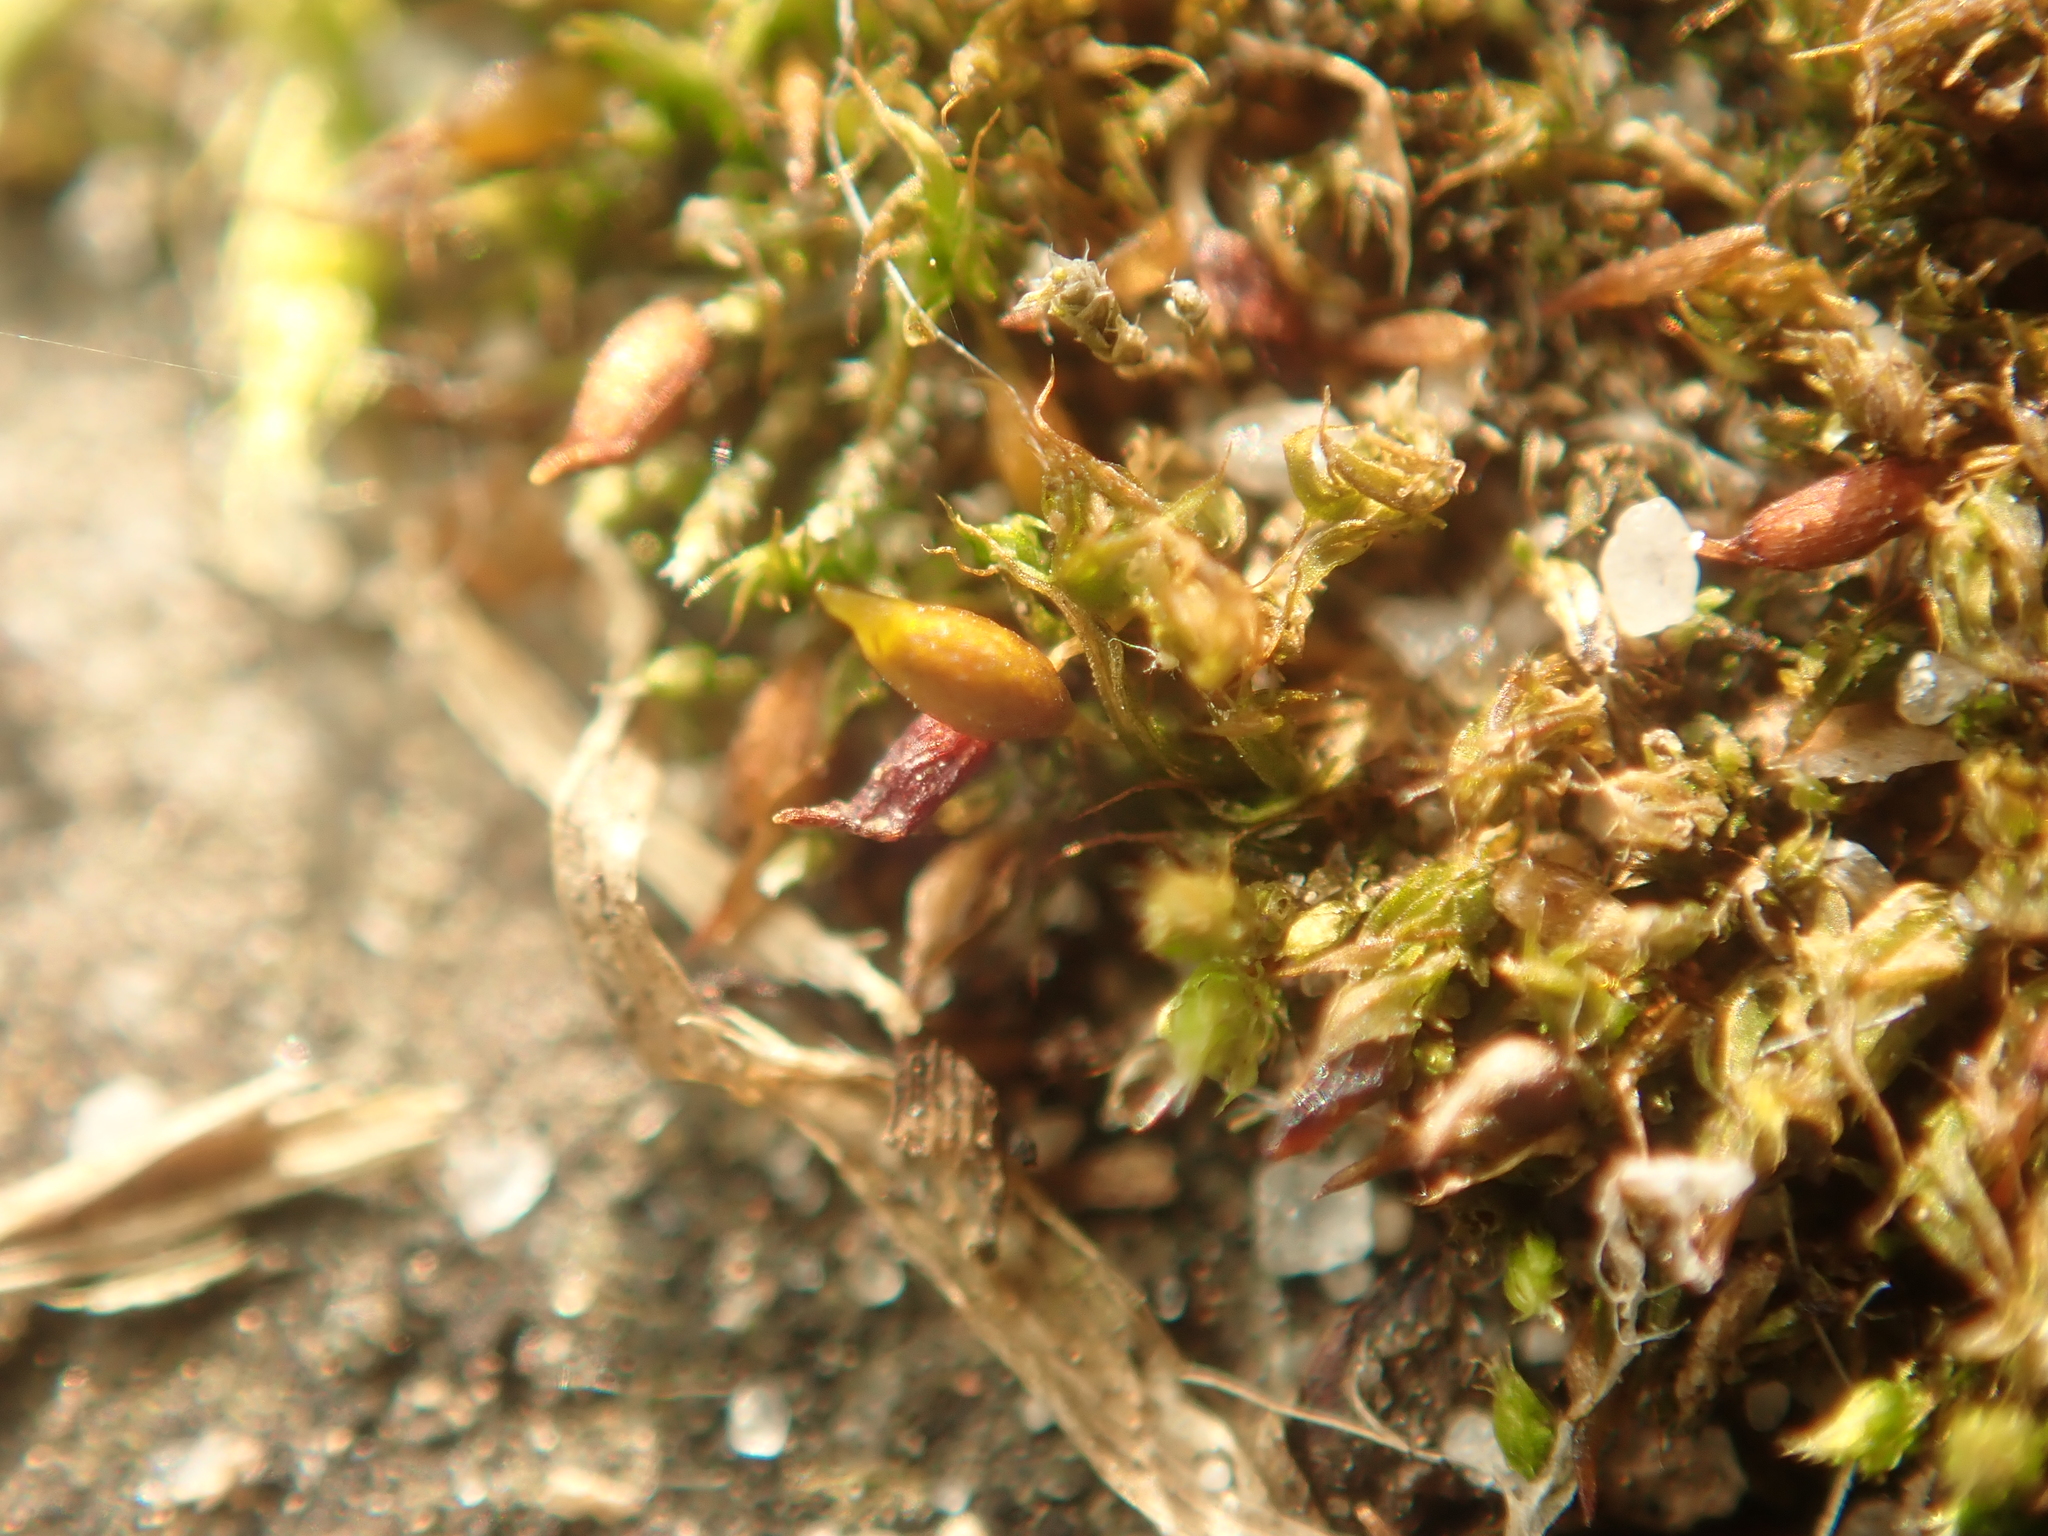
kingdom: Plantae
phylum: Bryophyta
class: Bryopsida
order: Pottiales
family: Pottiaceae
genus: Tortula
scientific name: Tortula protobryoides
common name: Tall pottia
